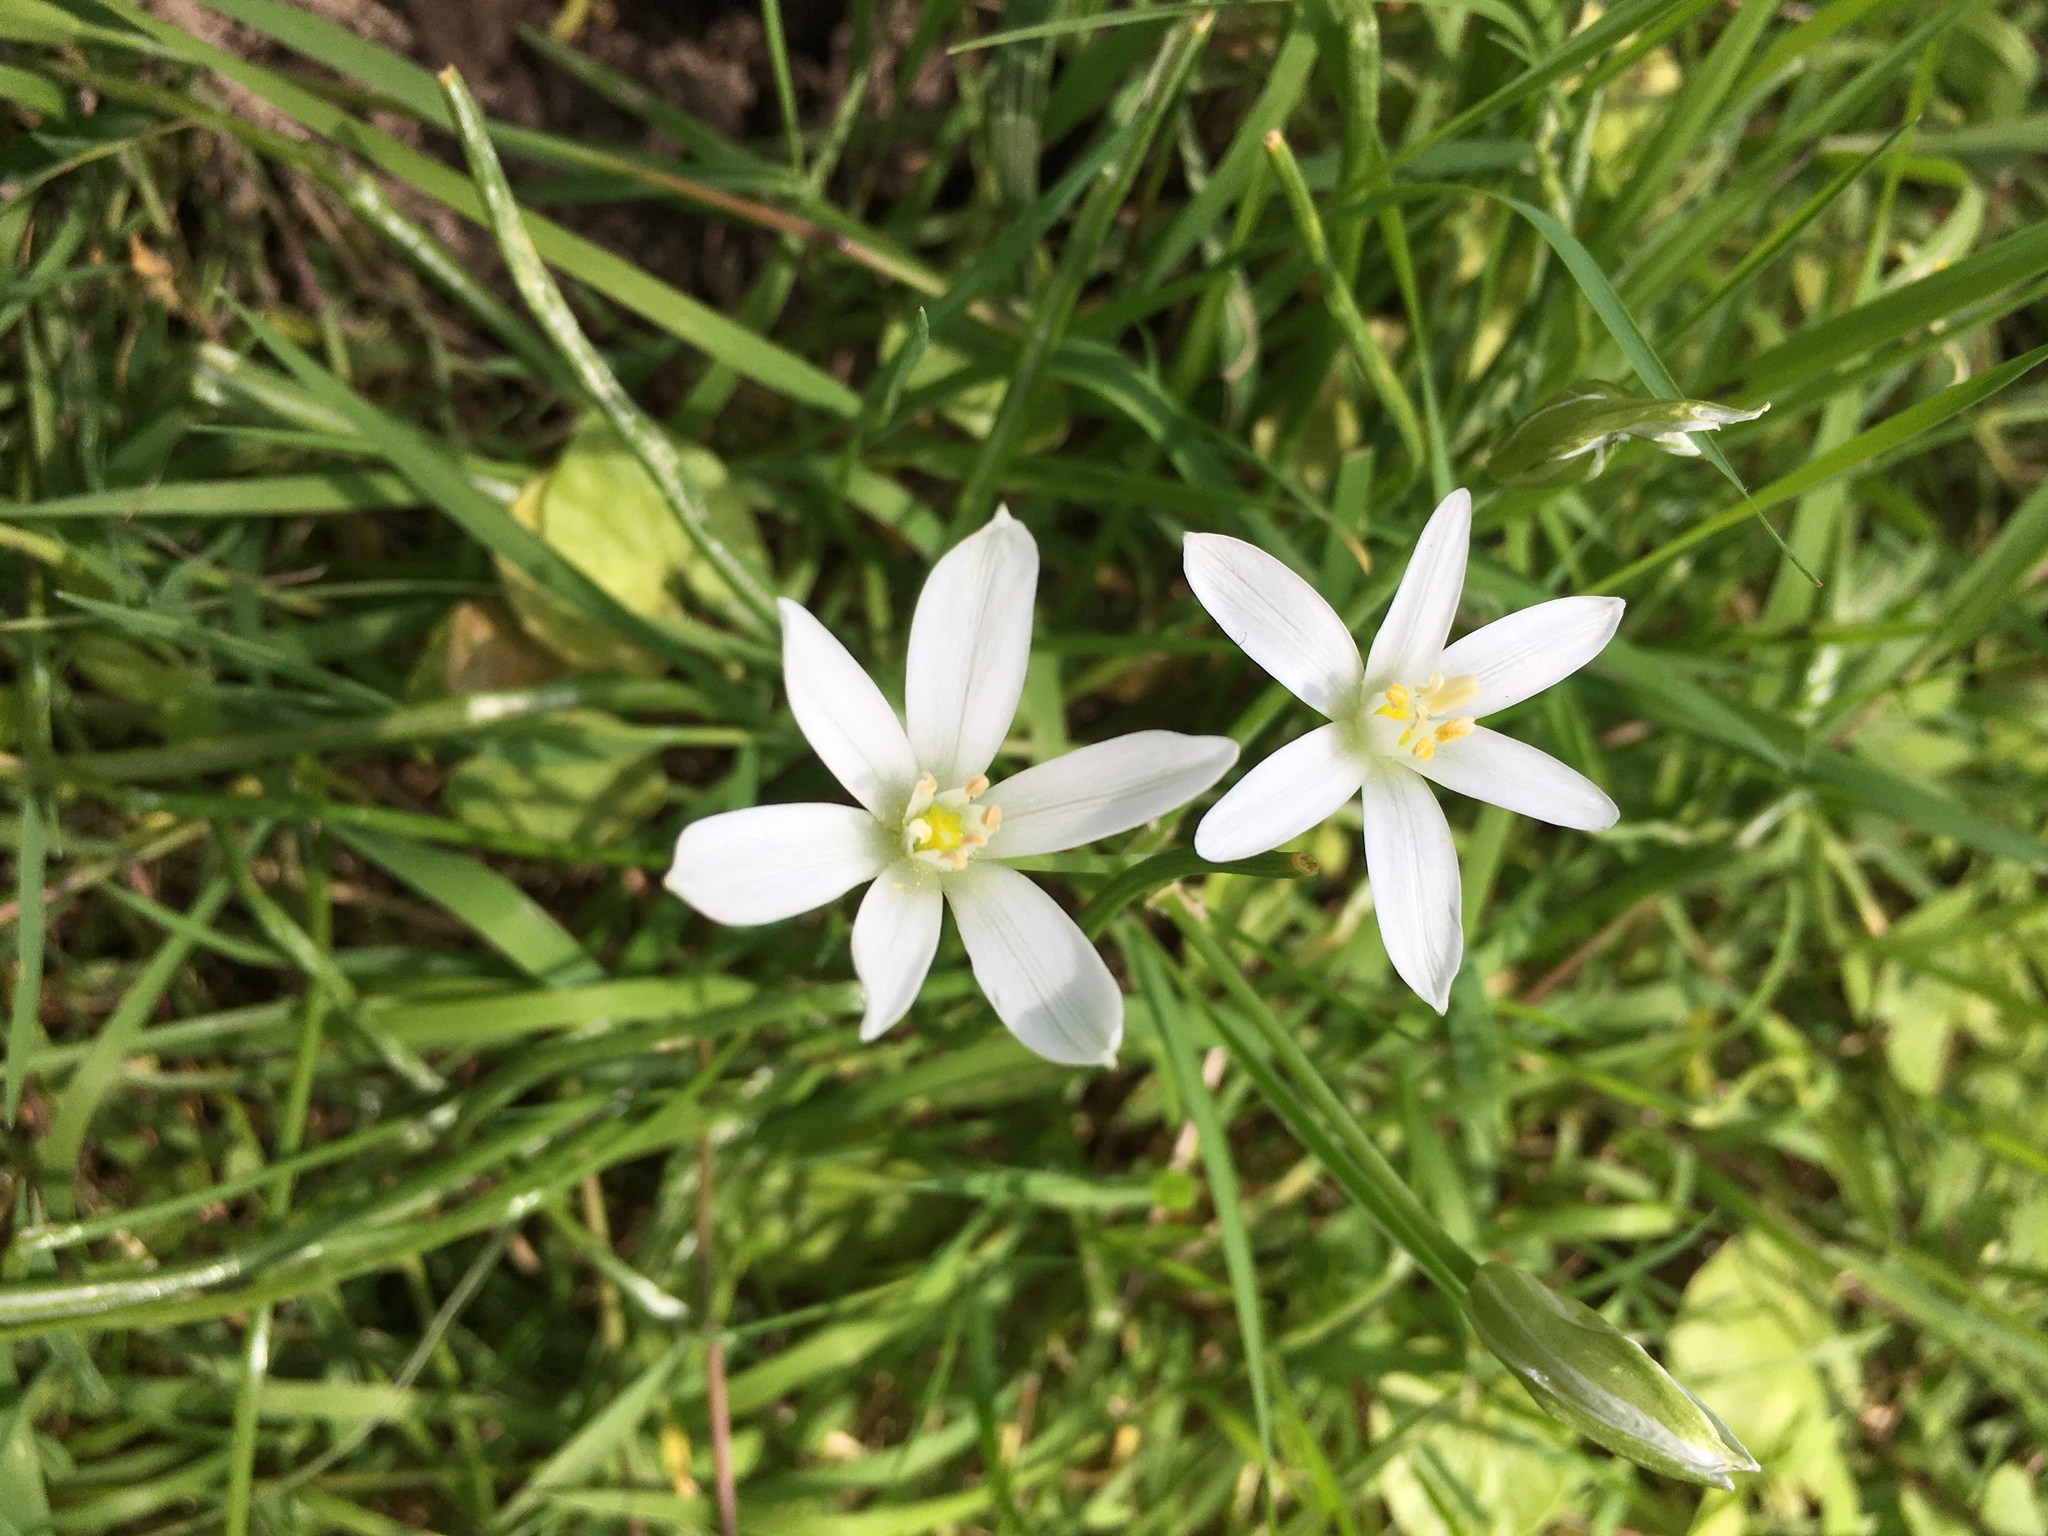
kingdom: Plantae
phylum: Tracheophyta
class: Liliopsida
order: Asparagales
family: Asparagaceae
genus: Ornithogalum
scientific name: Ornithogalum umbellatum
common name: Garden star-of-bethlehem
